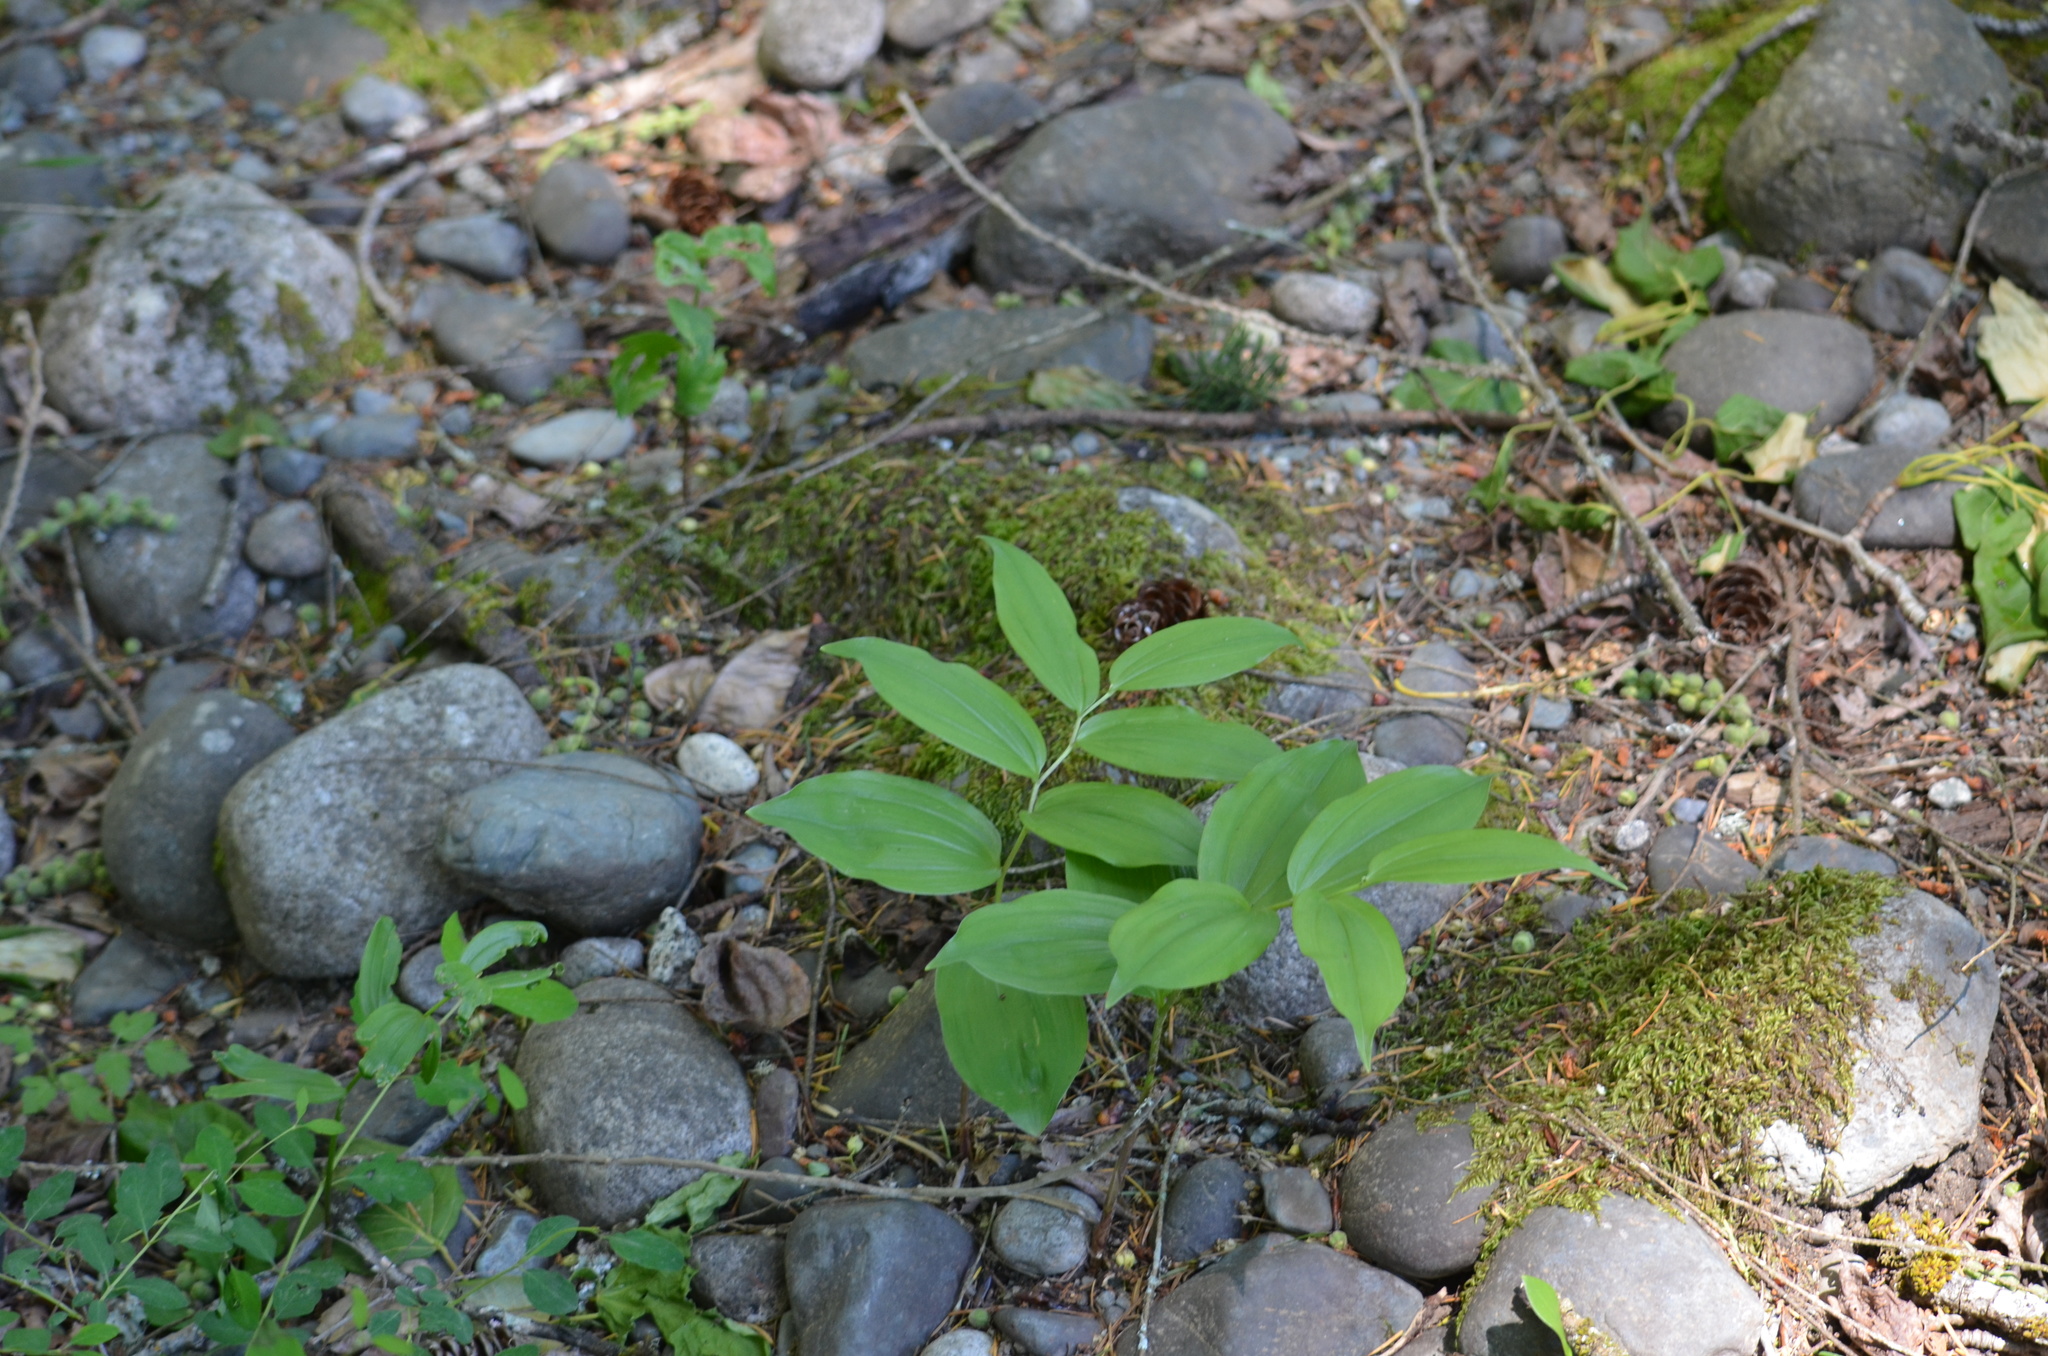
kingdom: Plantae
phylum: Tracheophyta
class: Liliopsida
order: Asparagales
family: Asparagaceae
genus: Maianthemum
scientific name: Maianthemum racemosum
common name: False spikenard
